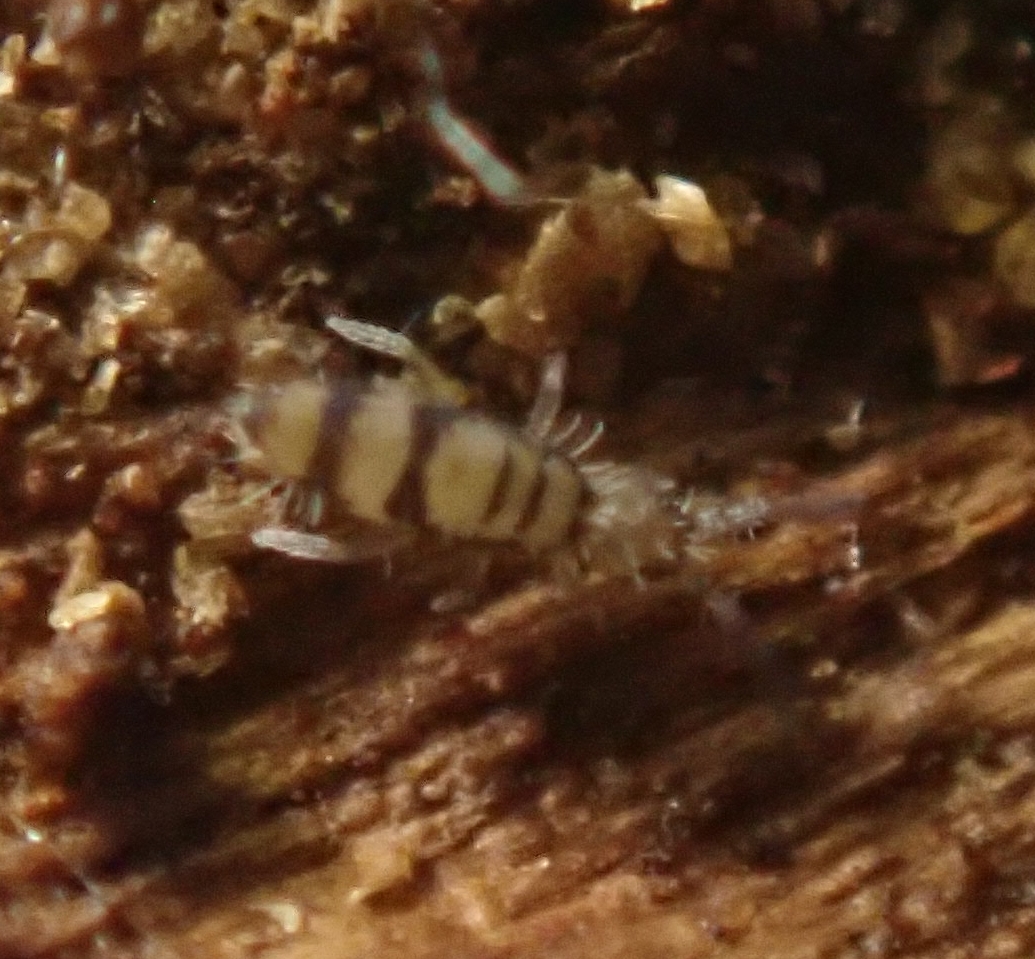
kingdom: Animalia
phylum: Arthropoda
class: Collembola
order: Entomobryomorpha
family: Entomobryidae
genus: Entomobrya
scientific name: Entomobrya corticalis
